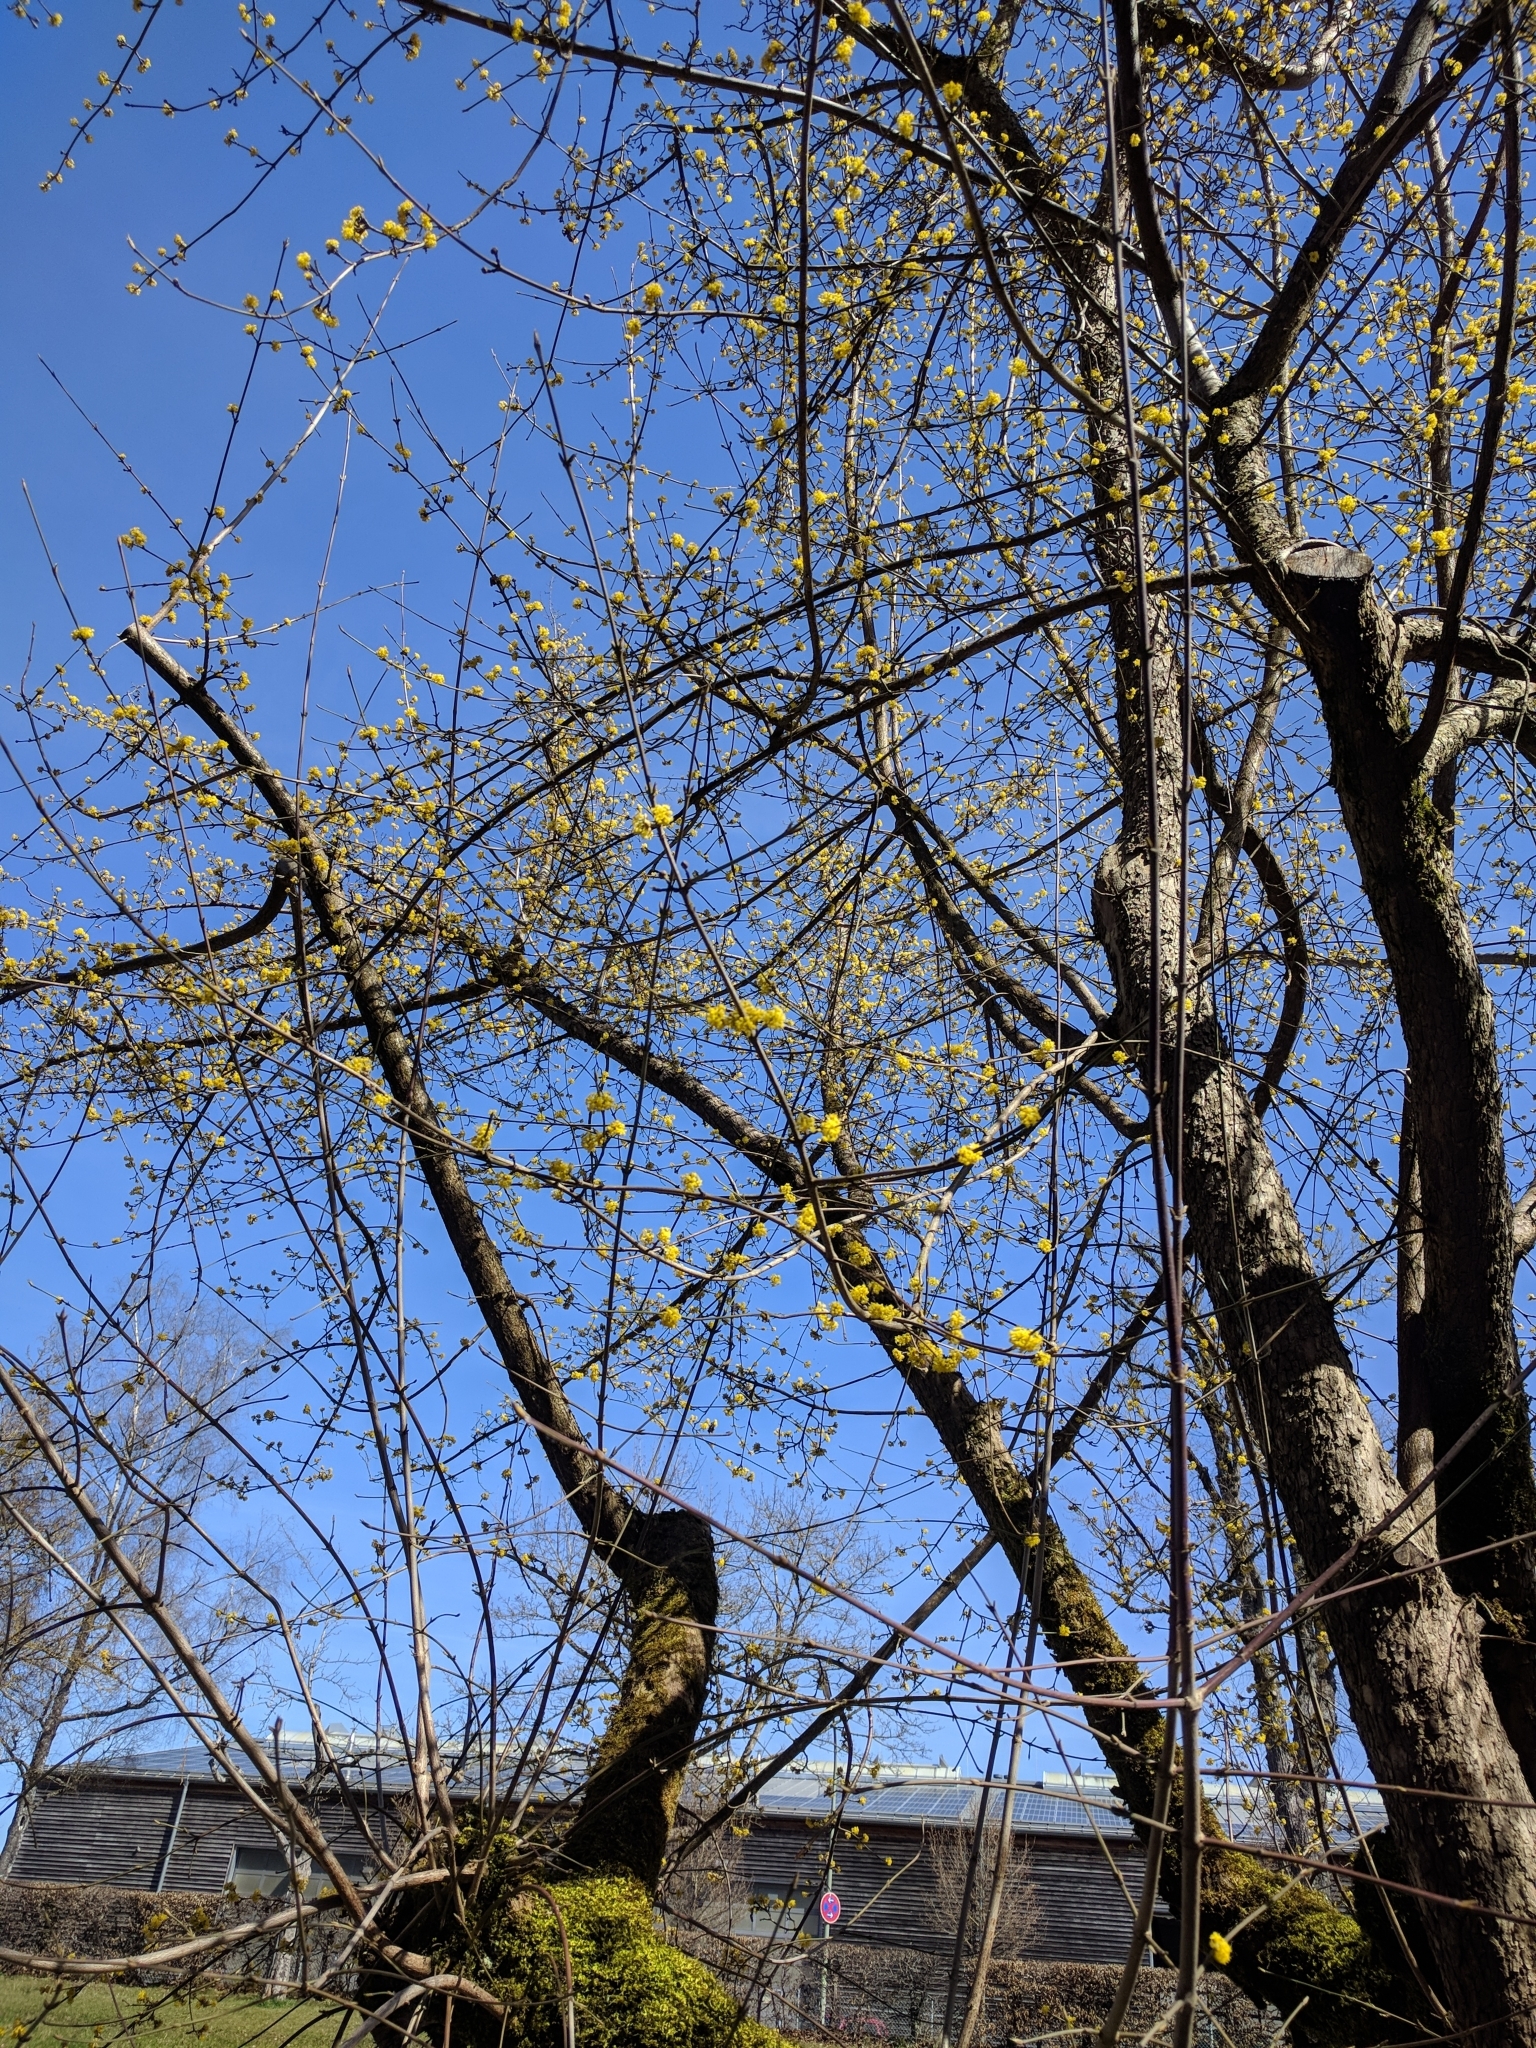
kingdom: Plantae
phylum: Tracheophyta
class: Magnoliopsida
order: Cornales
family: Cornaceae
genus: Cornus
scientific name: Cornus mas
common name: Cornelian-cherry
